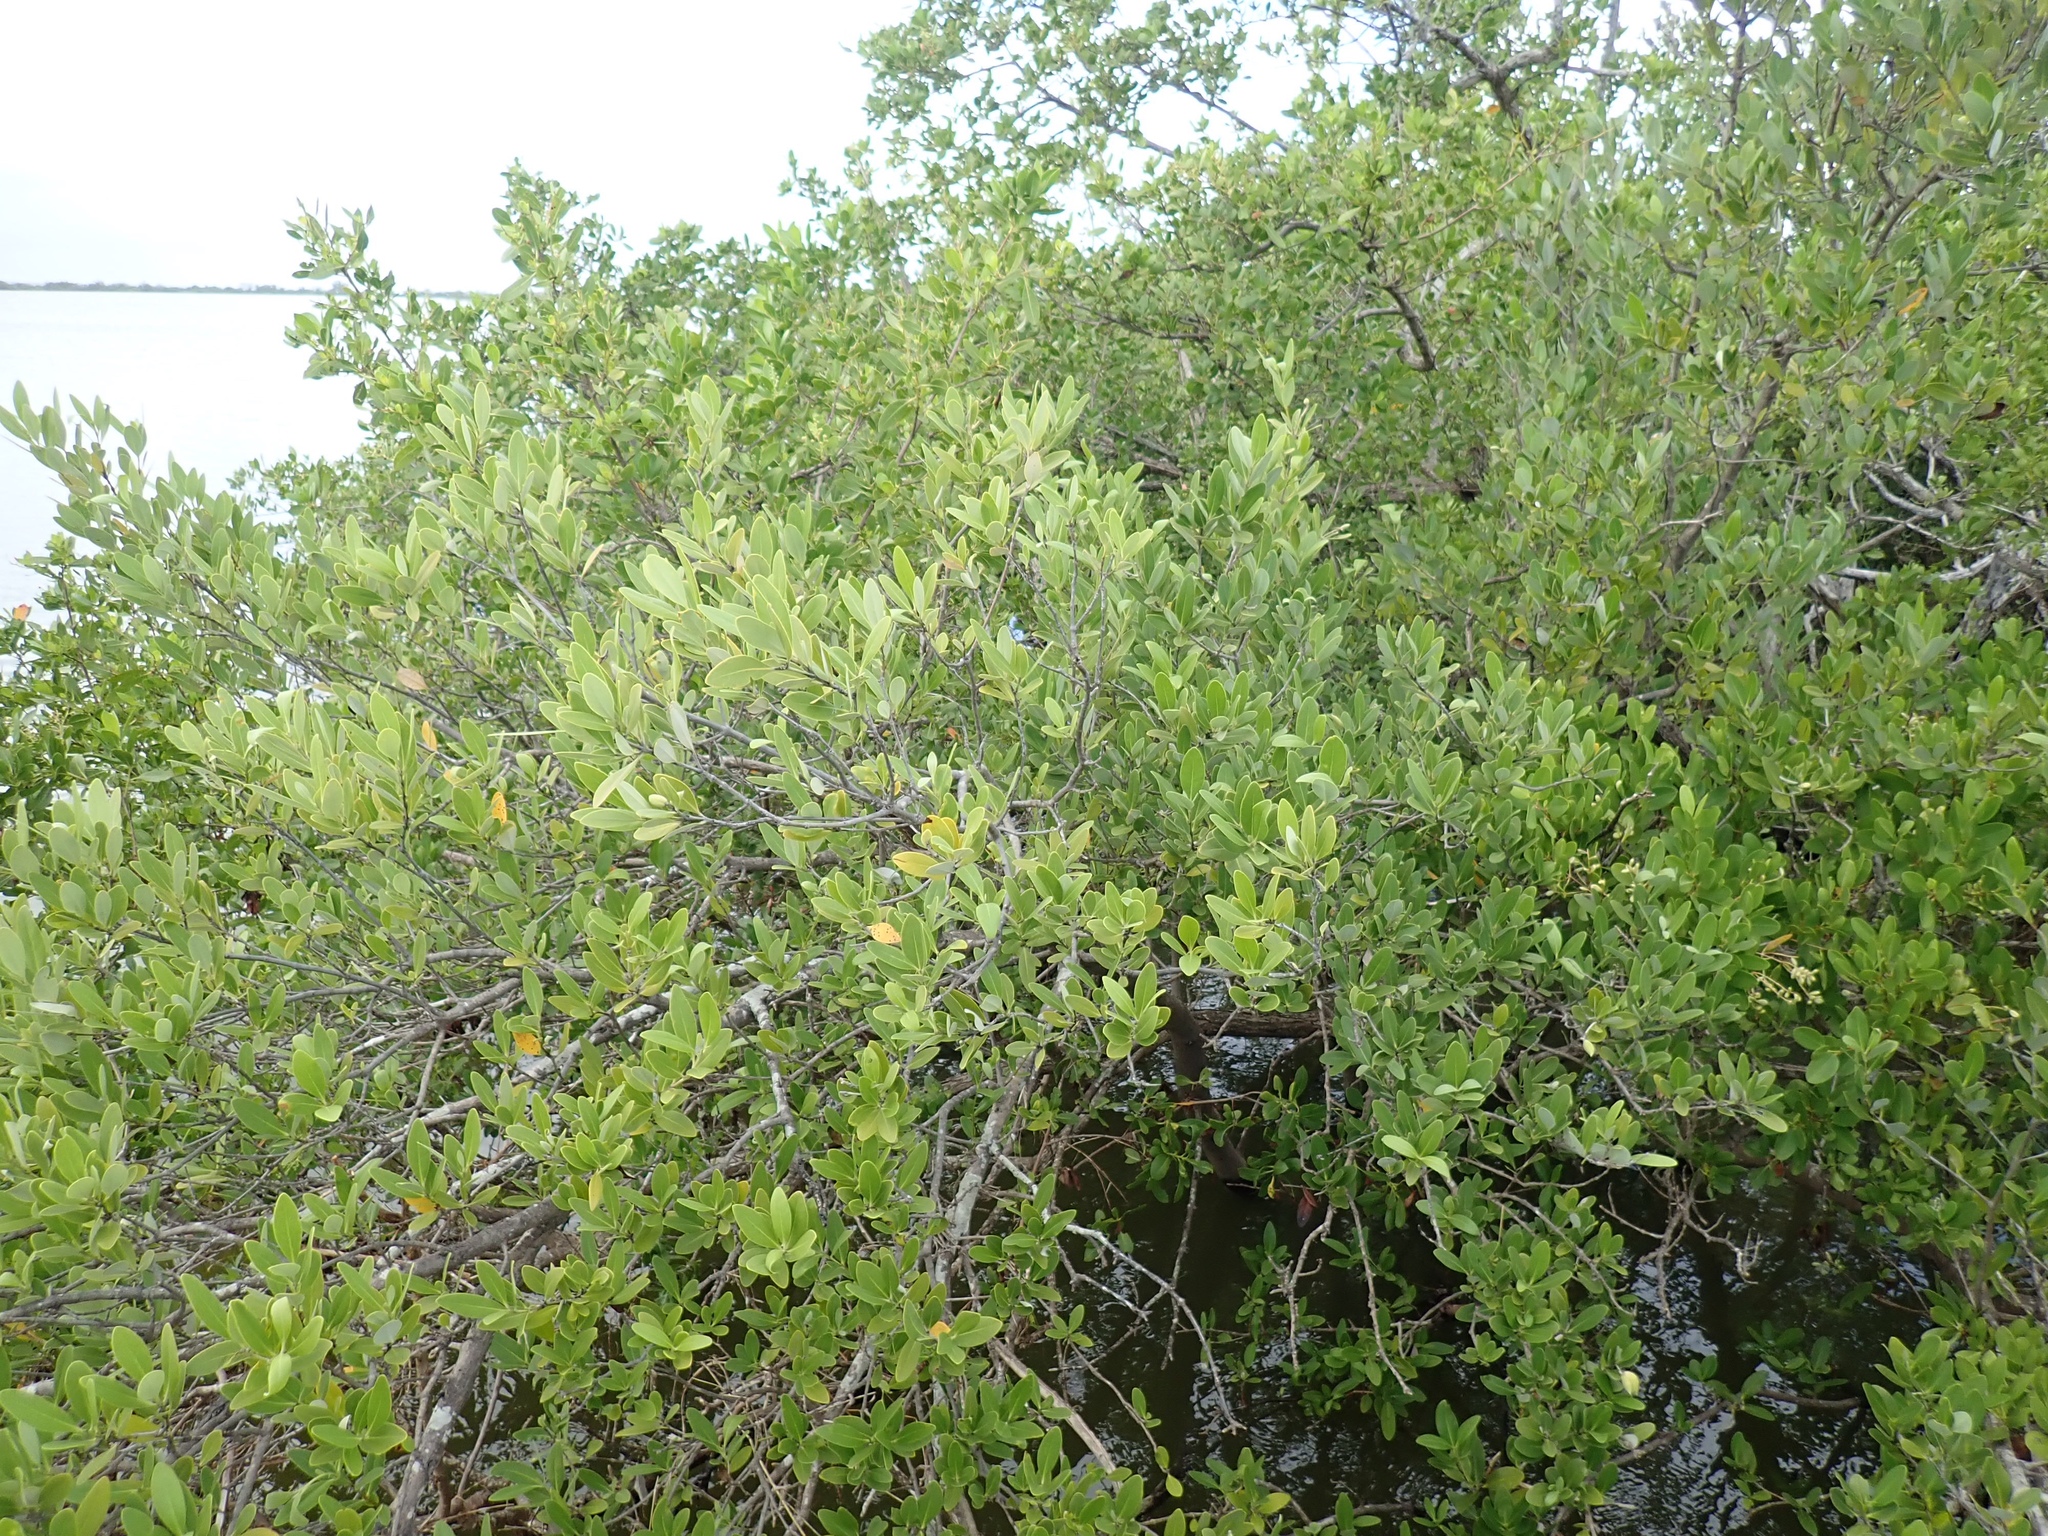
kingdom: Plantae
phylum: Tracheophyta
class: Magnoliopsida
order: Lamiales
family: Acanthaceae
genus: Avicennia
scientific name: Avicennia germinans
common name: Black mangrove
